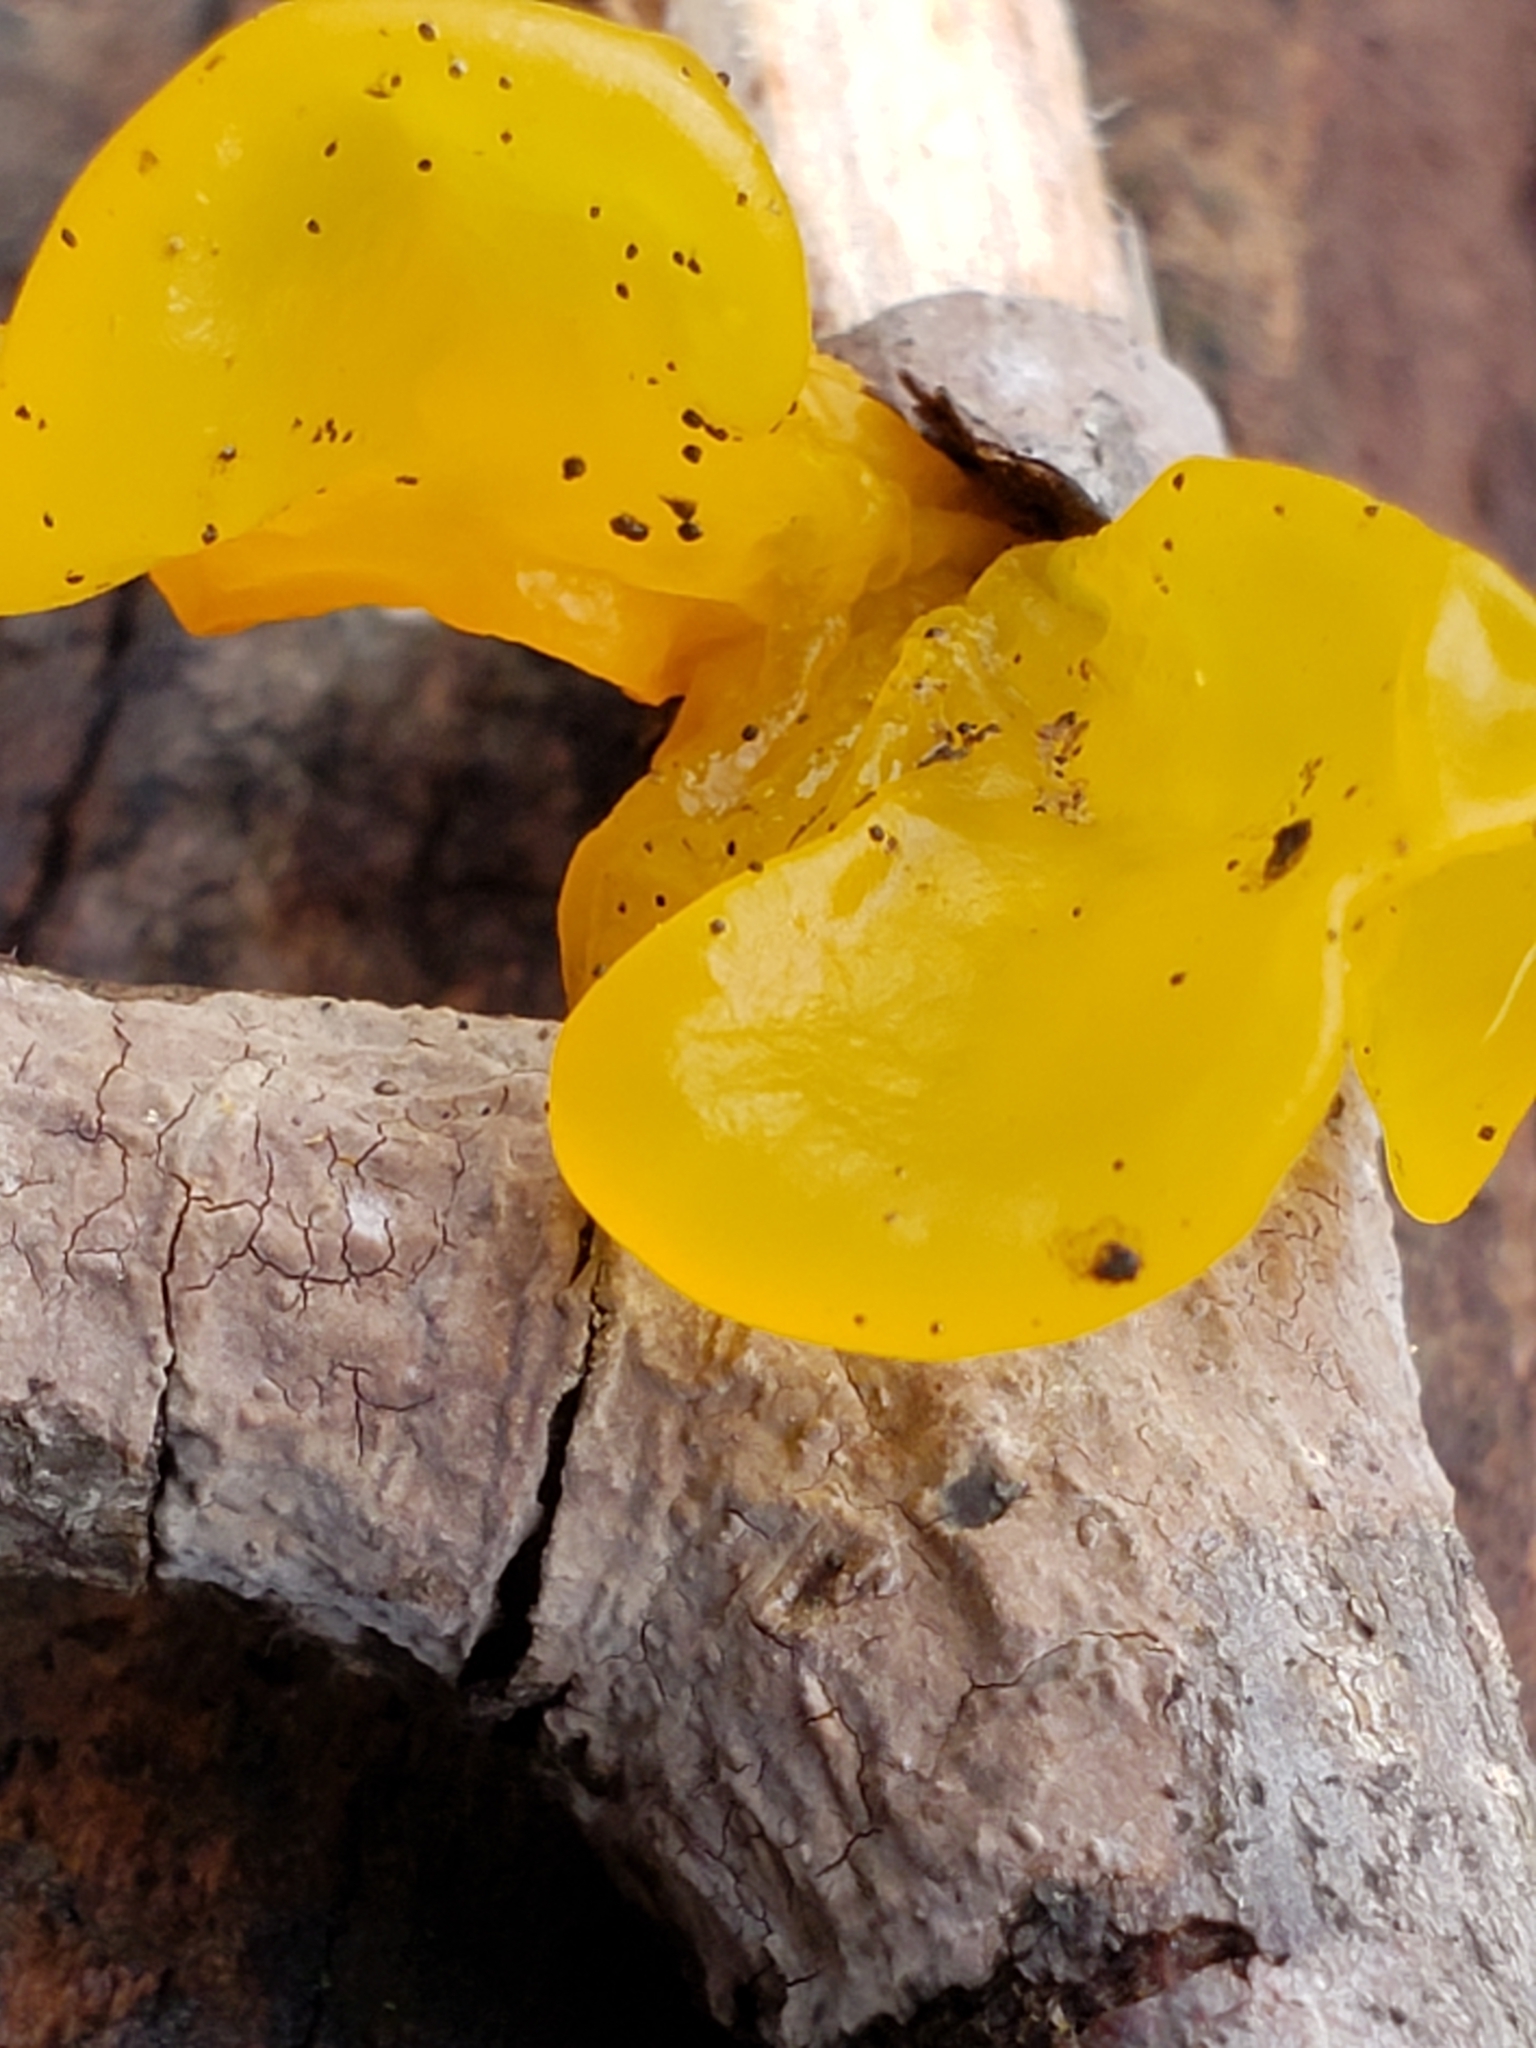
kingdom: Fungi
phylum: Basidiomycota
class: Tremellomycetes
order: Tremellales
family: Tremellaceae
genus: Tremella
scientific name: Tremella mesenterica
